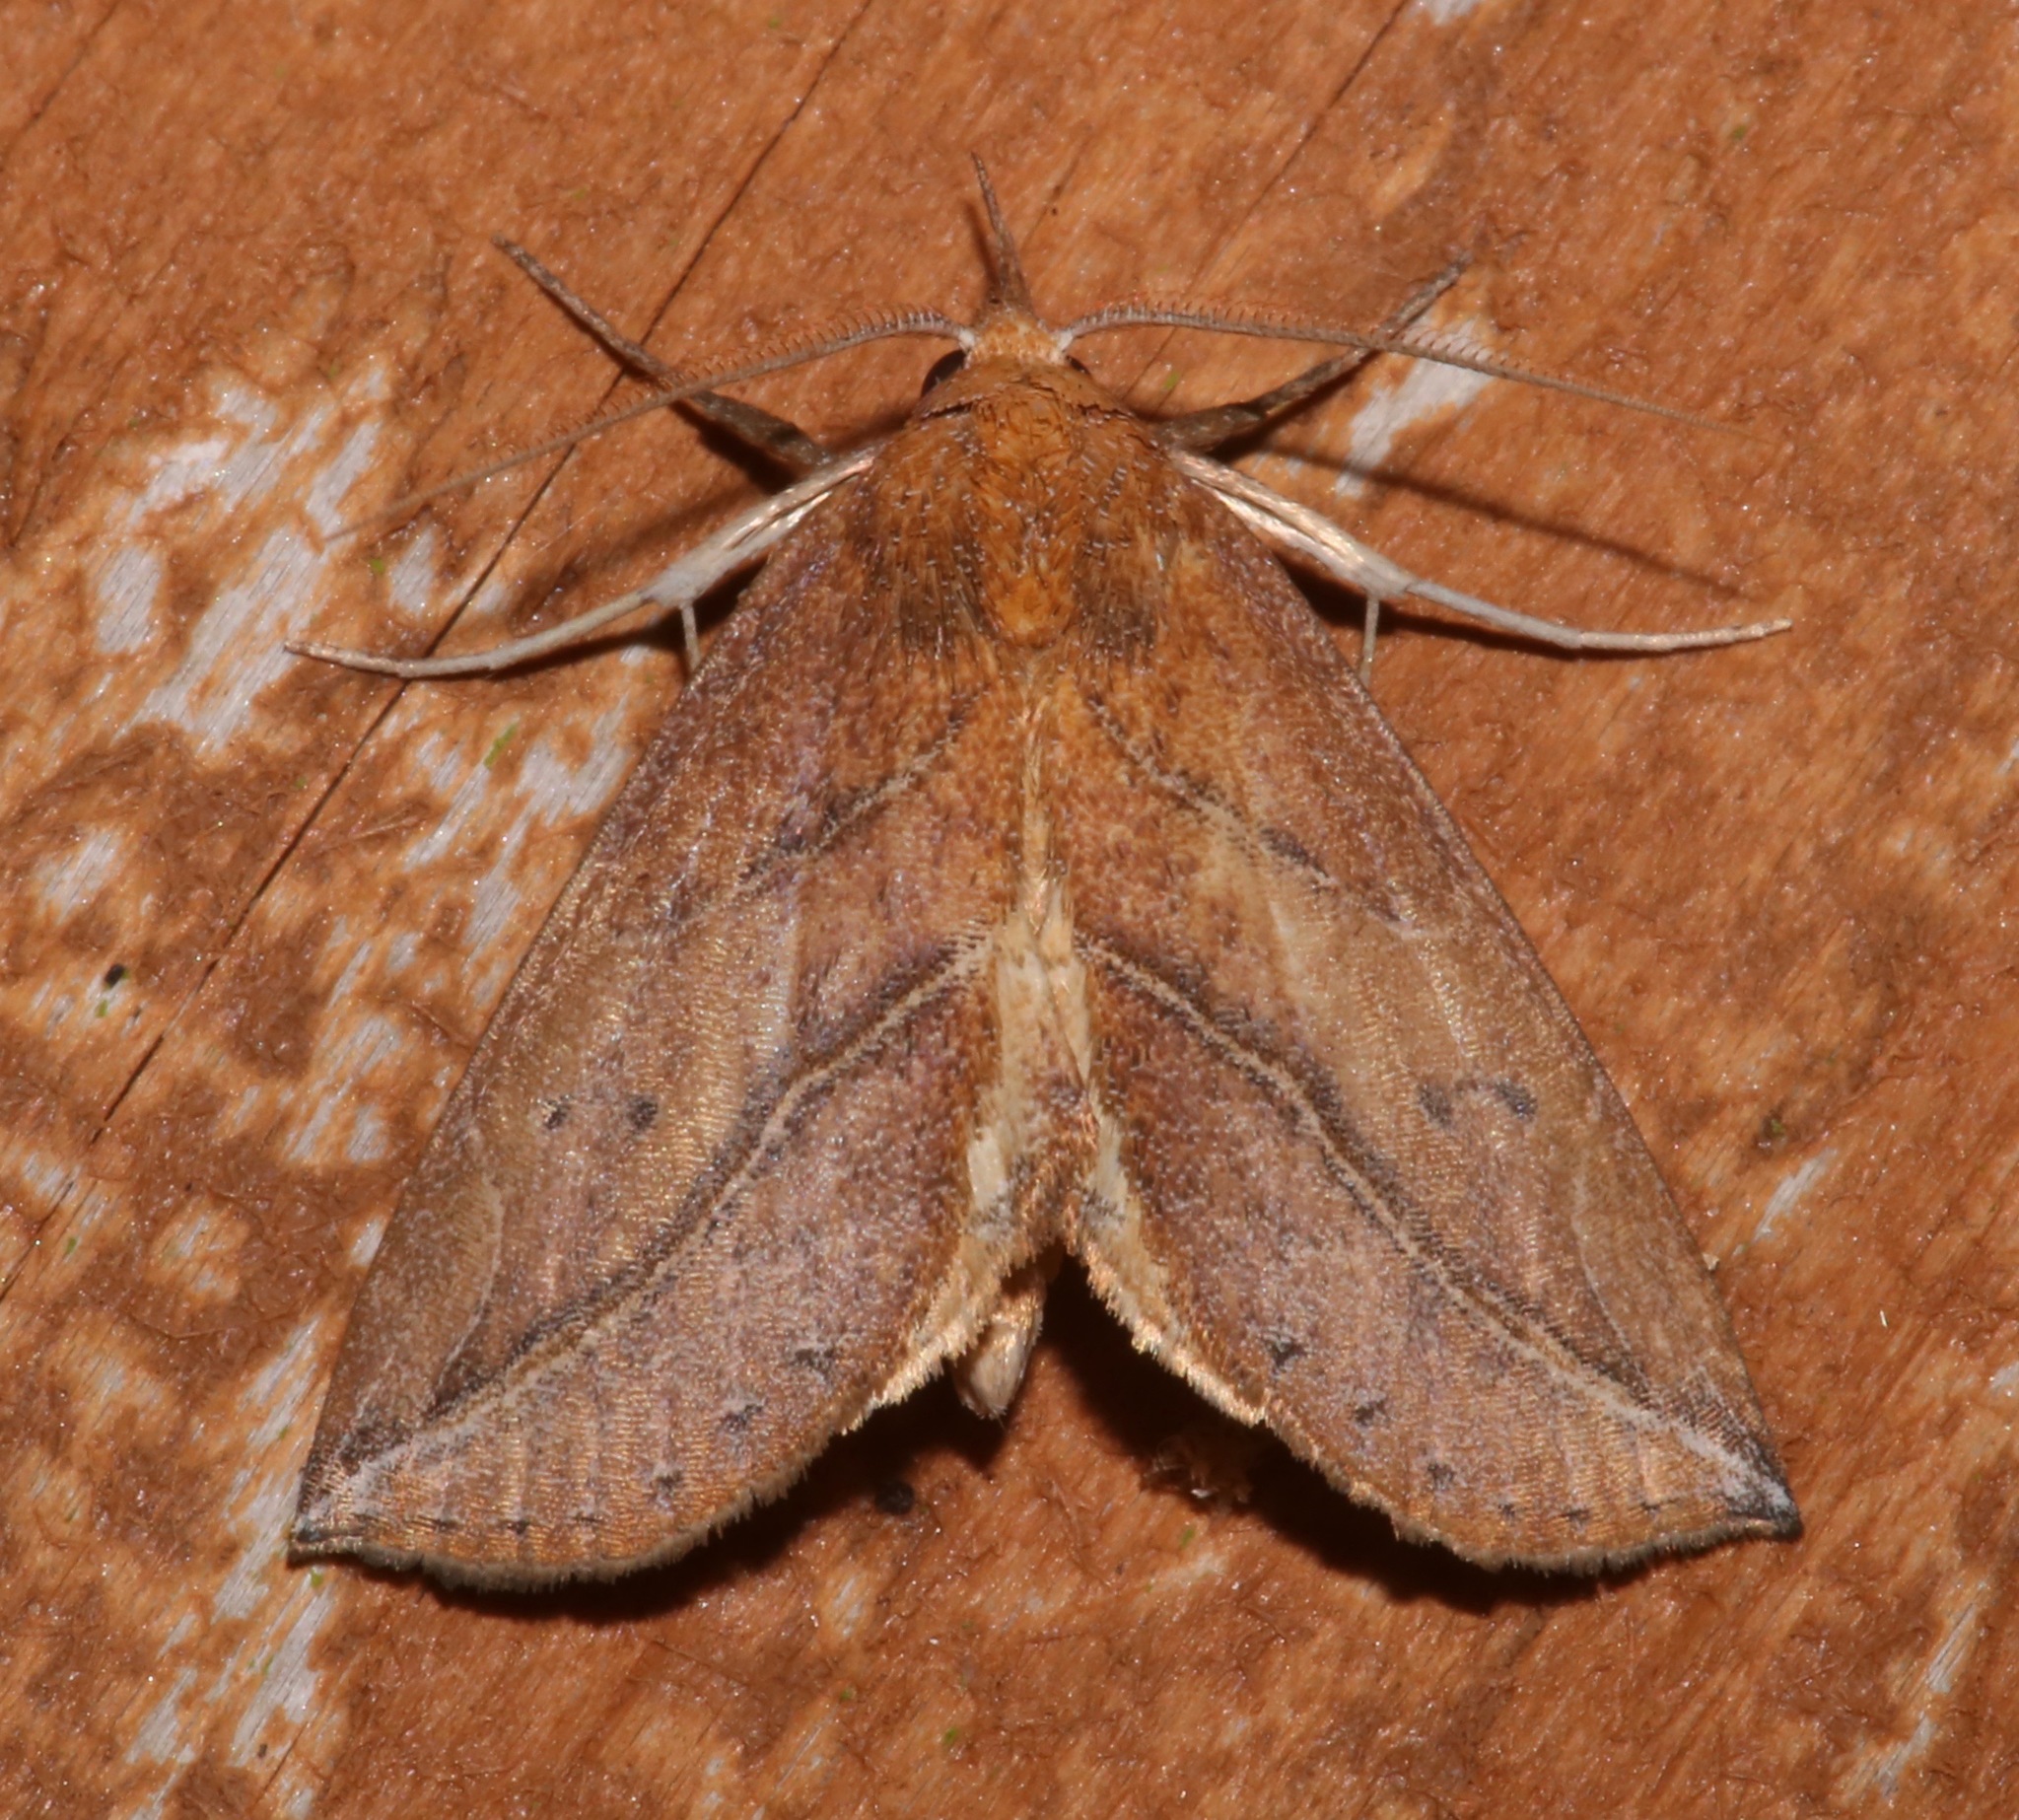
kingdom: Animalia
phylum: Arthropoda
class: Insecta
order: Lepidoptera
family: Erebidae
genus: Phyprosopus
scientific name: Phyprosopus callitrichoides
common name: Curved-lined owlet
